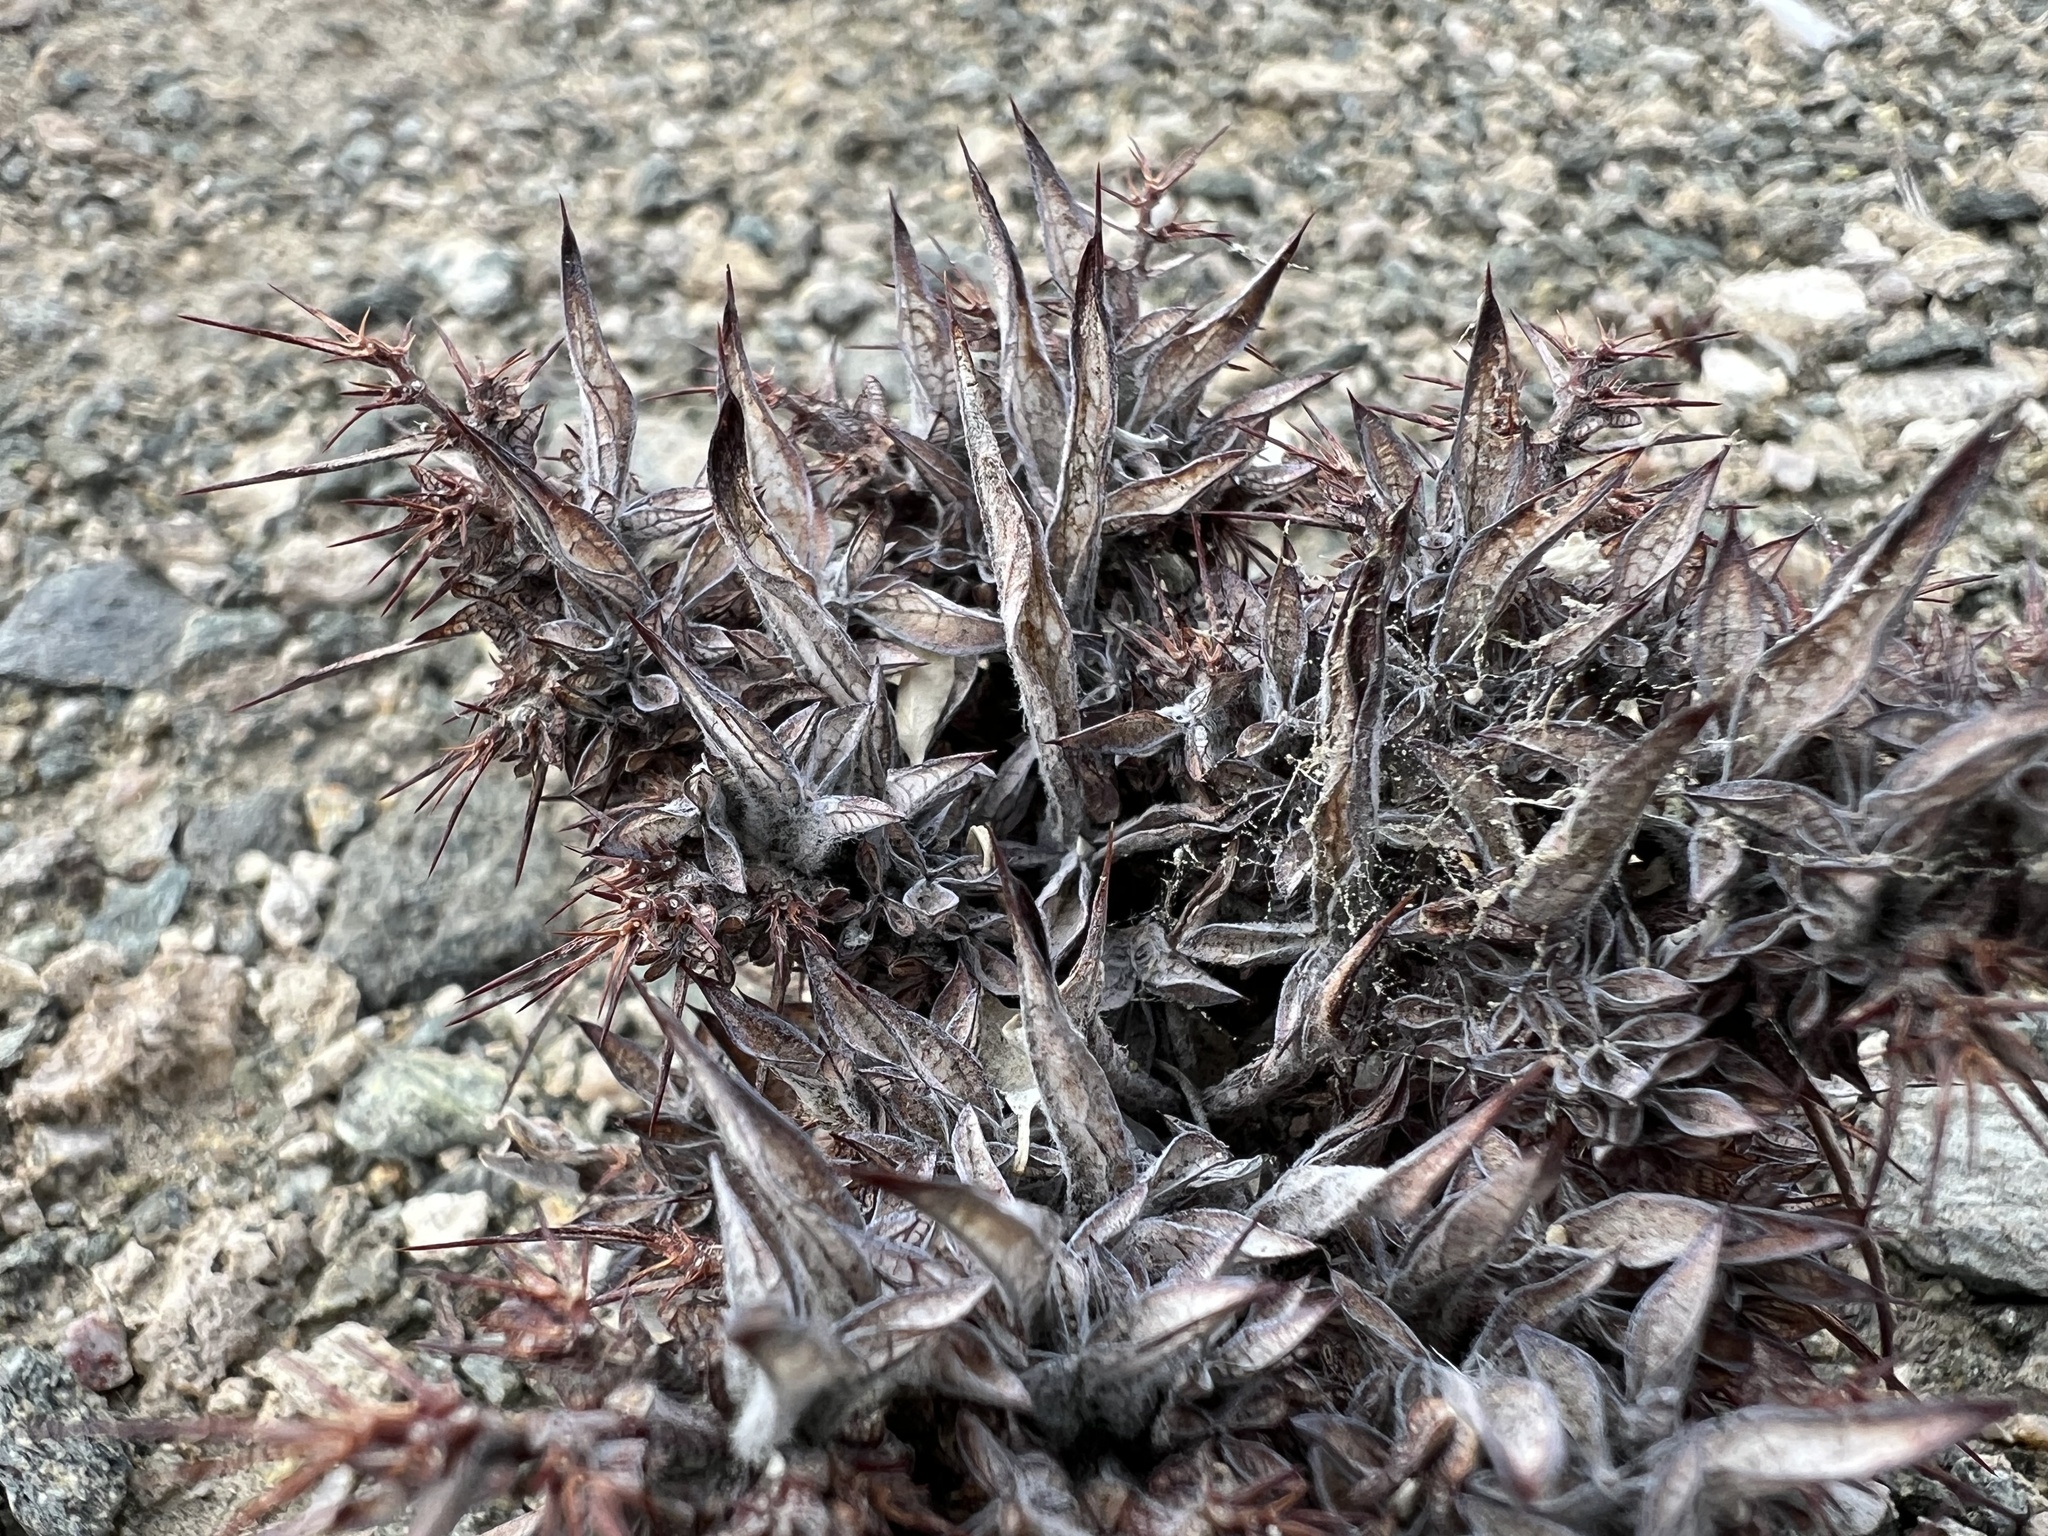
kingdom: Plantae
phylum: Tracheophyta
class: Magnoliopsida
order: Caryophyllales
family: Polygonaceae
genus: Chorizanthe
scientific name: Chorizanthe rigida
